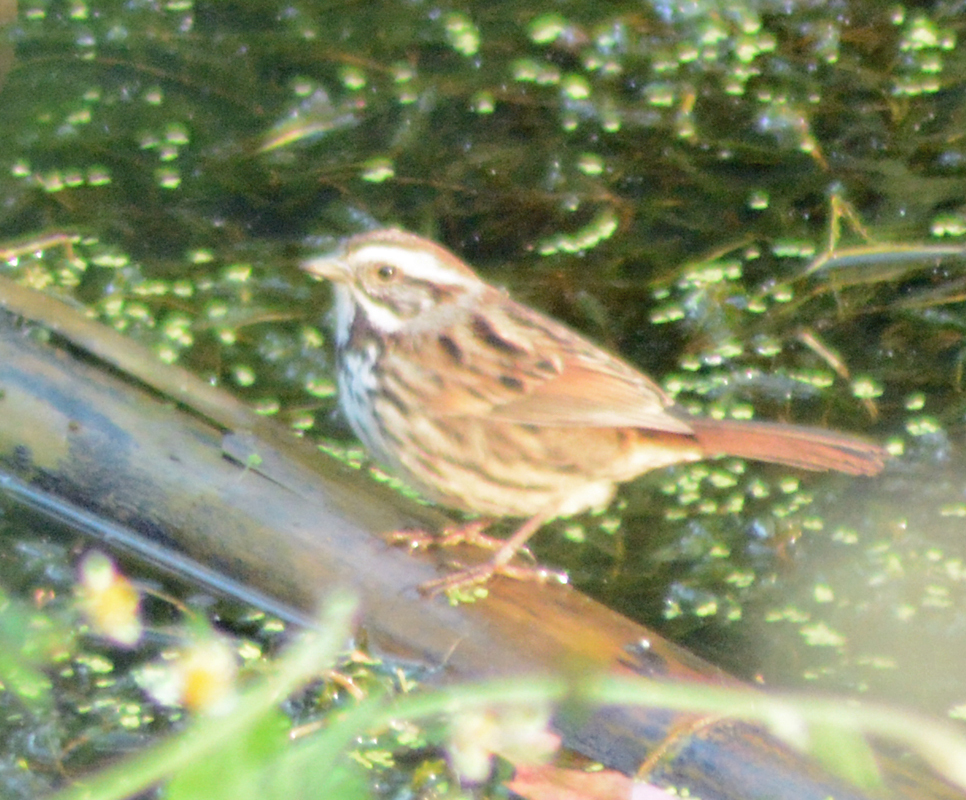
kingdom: Animalia
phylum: Chordata
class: Aves
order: Passeriformes
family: Passerellidae
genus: Melospiza
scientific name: Melospiza melodia
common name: Song sparrow
